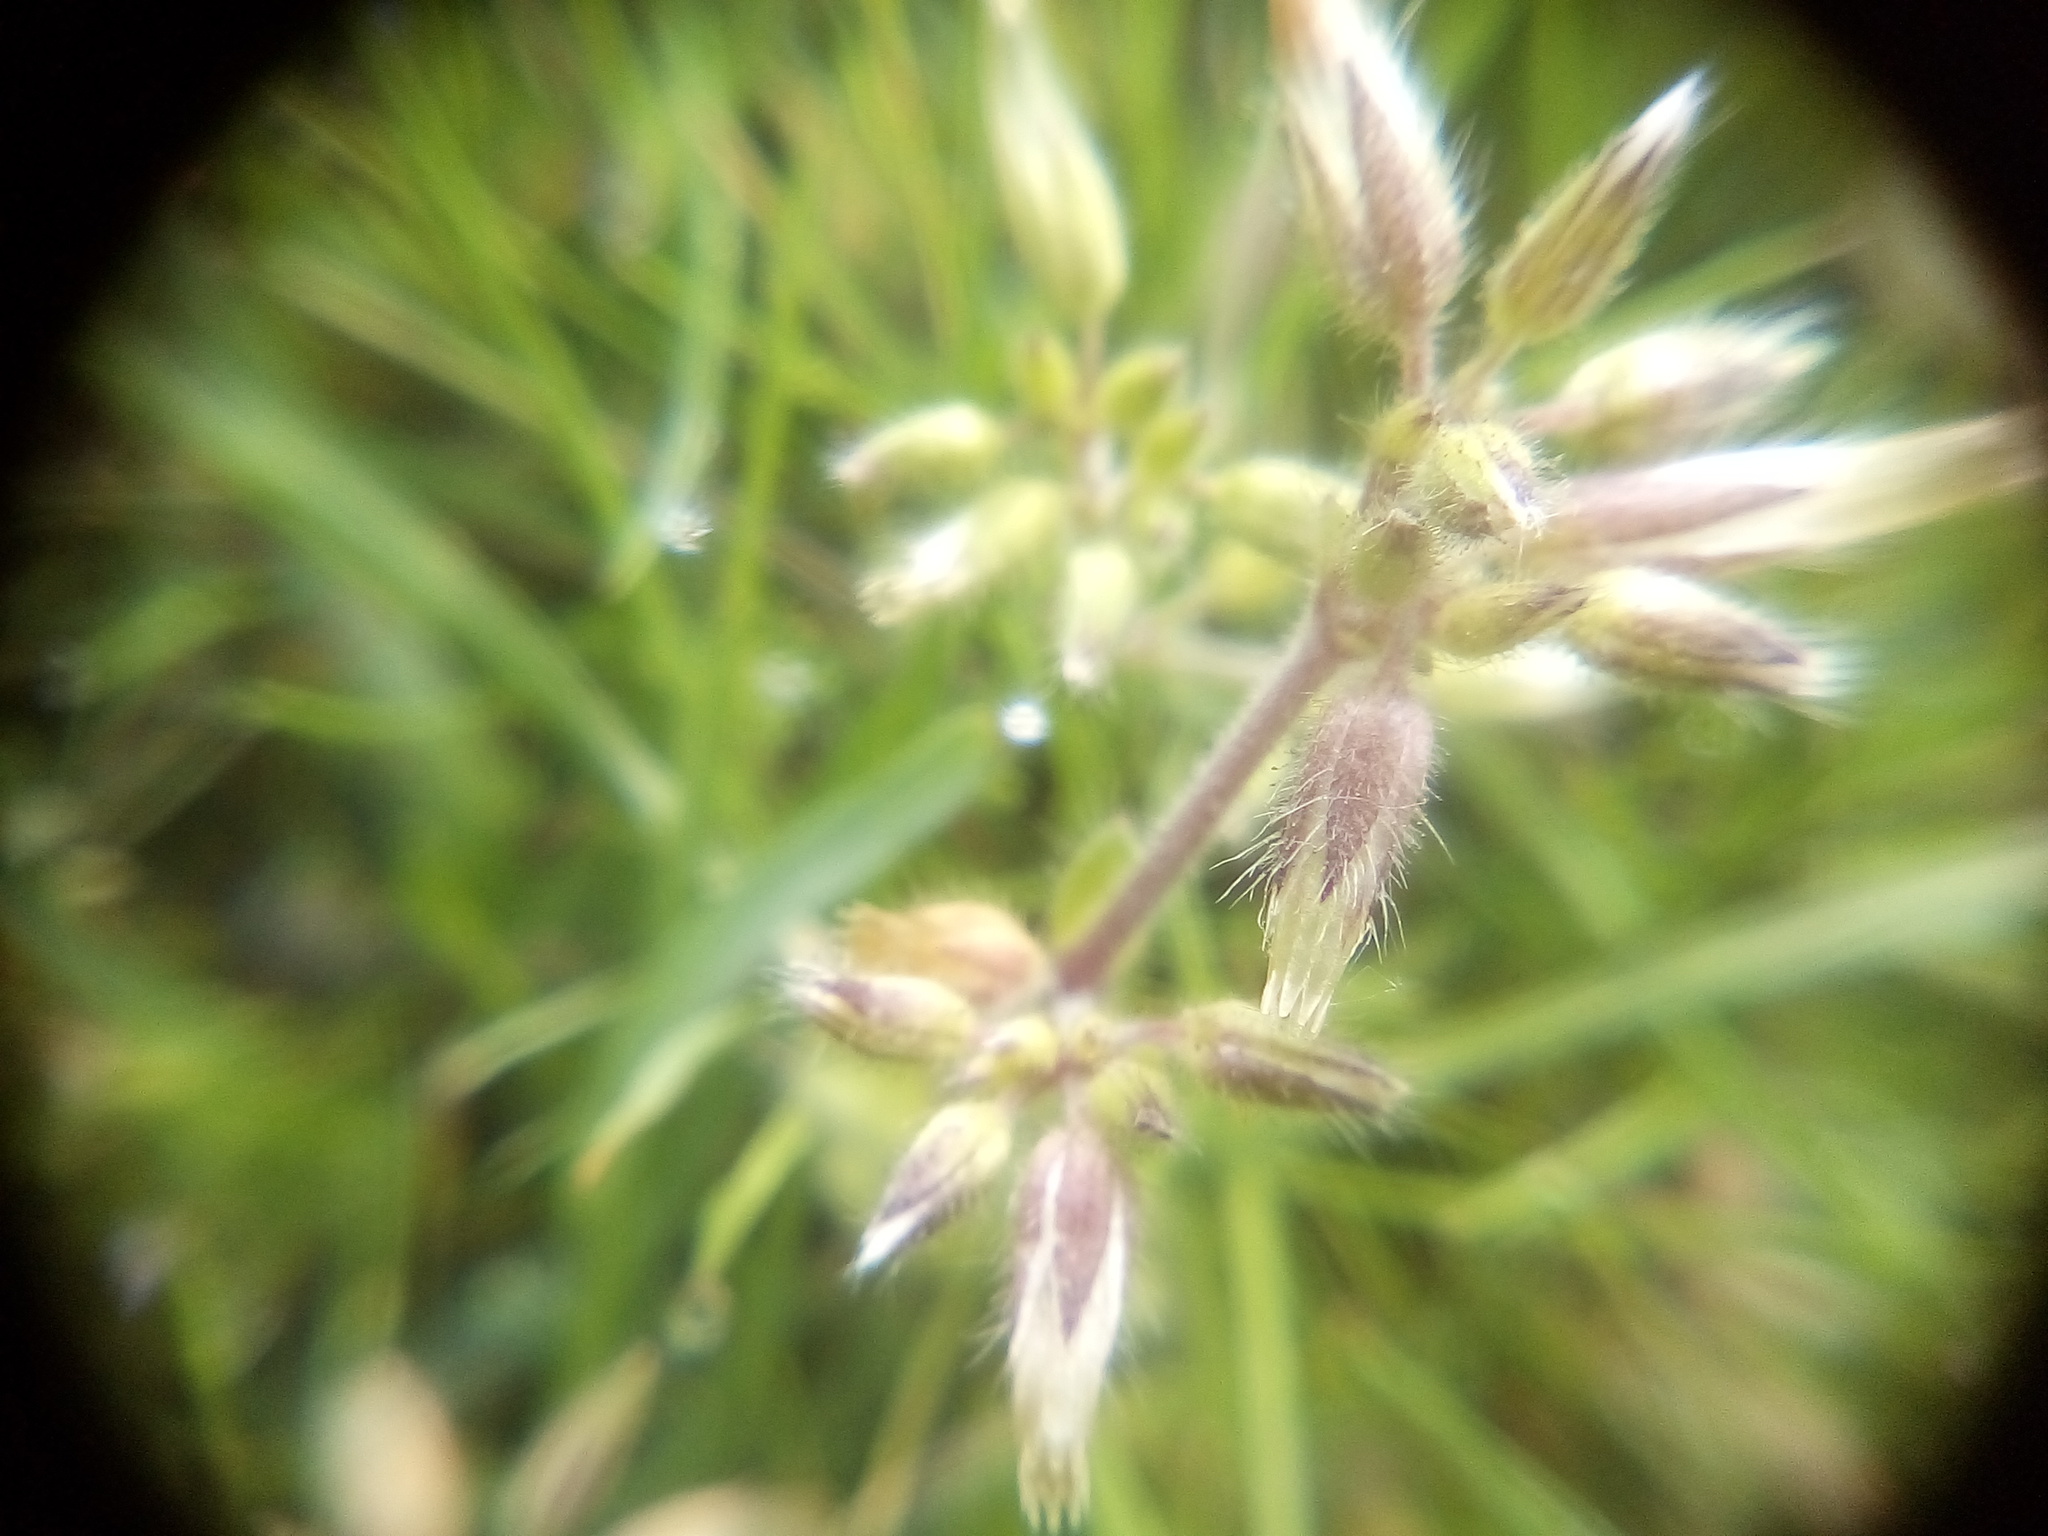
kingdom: Plantae
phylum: Tracheophyta
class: Magnoliopsida
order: Caryophyllales
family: Caryophyllaceae
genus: Cerastium
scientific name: Cerastium glomeratum
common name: Sticky chickweed
